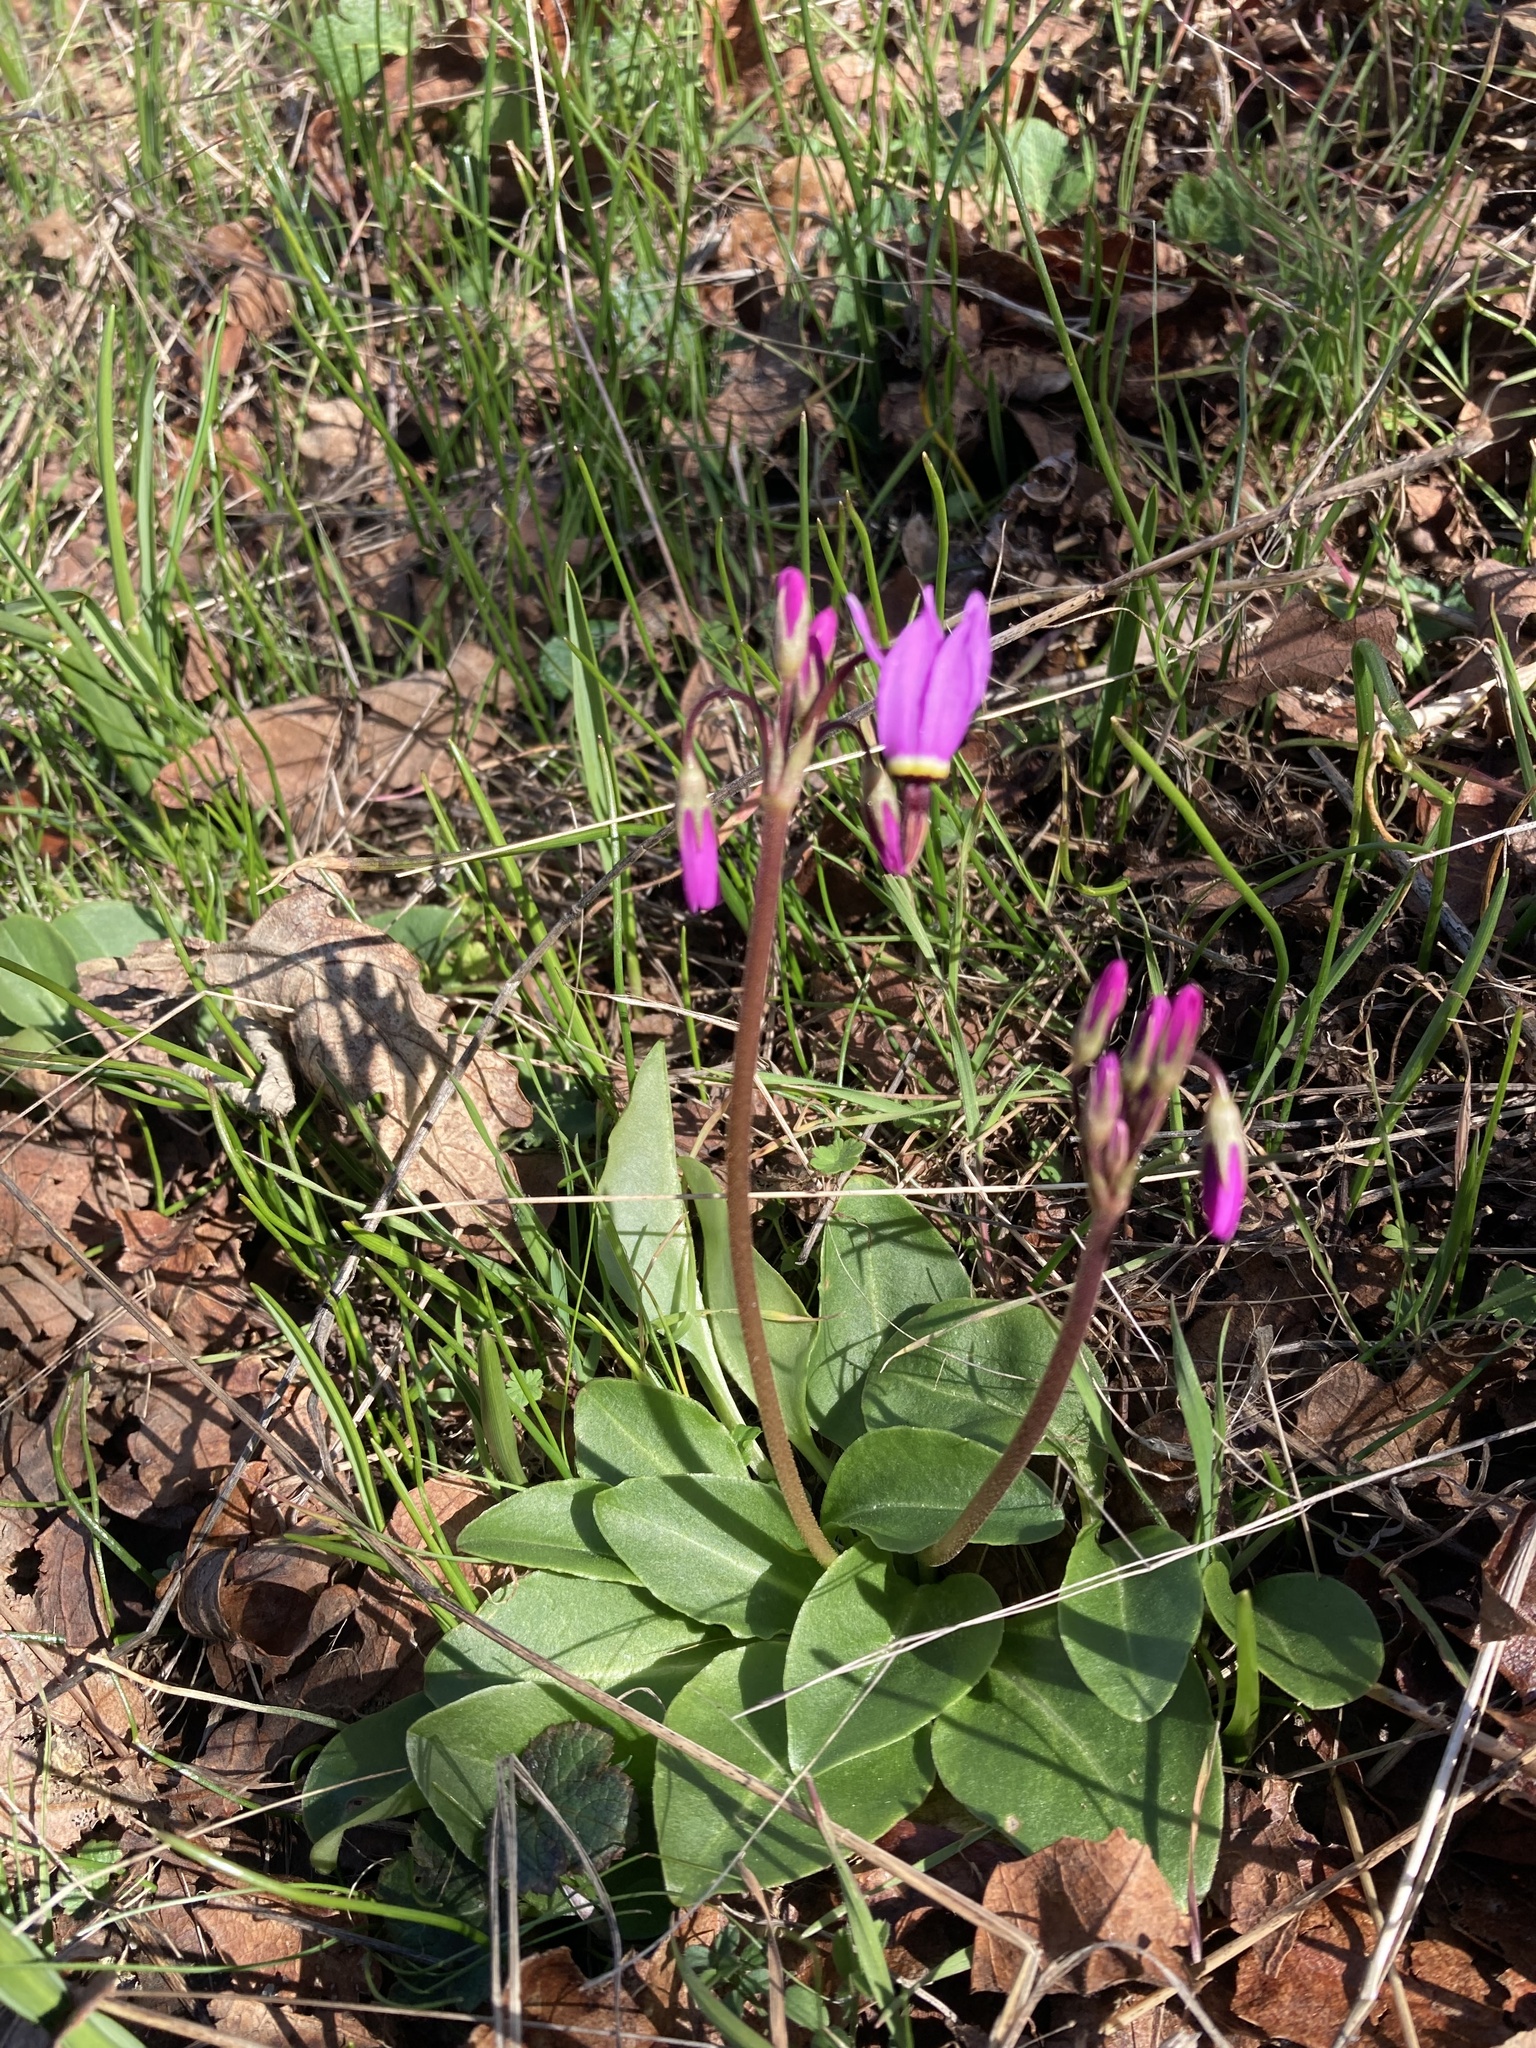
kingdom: Plantae
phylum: Tracheophyta
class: Magnoliopsida
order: Ericales
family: Primulaceae
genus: Dodecatheon
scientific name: Dodecatheon hendersonii
